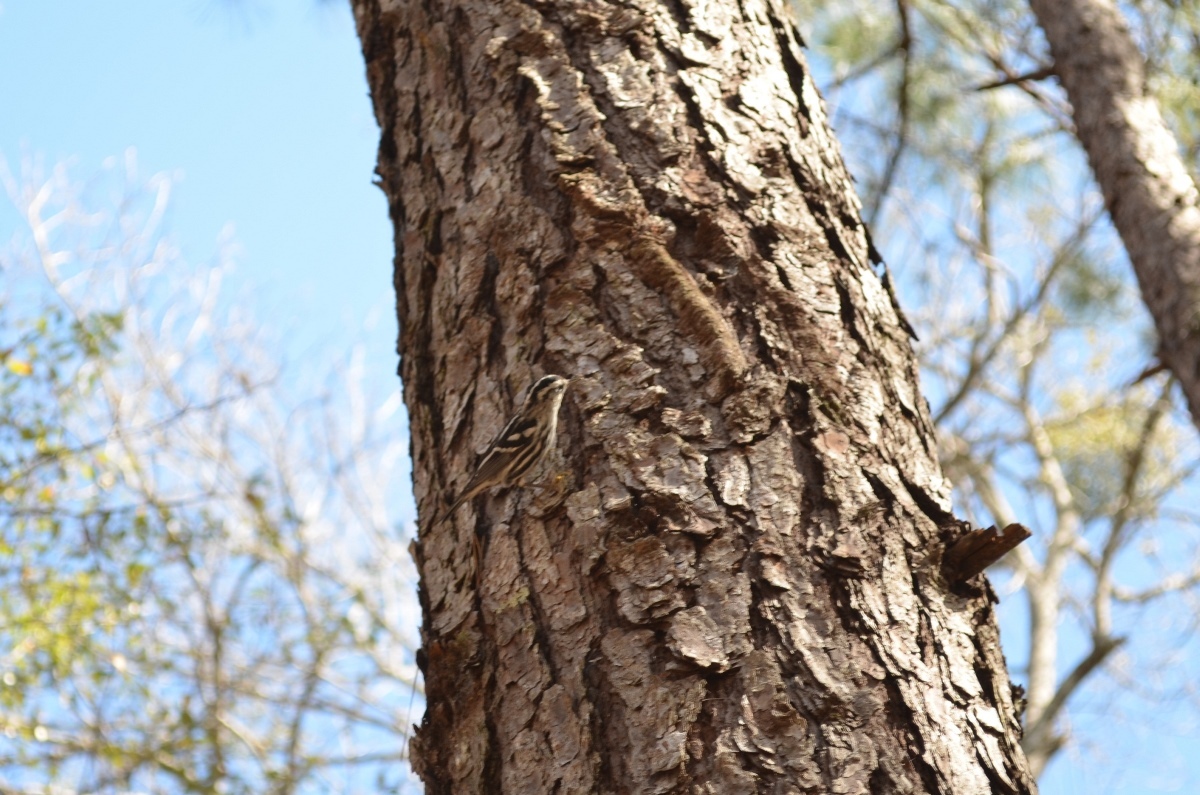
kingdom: Animalia
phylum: Chordata
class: Aves
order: Passeriformes
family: Parulidae
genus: Mniotilta
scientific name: Mniotilta varia
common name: Black-and-white warbler
